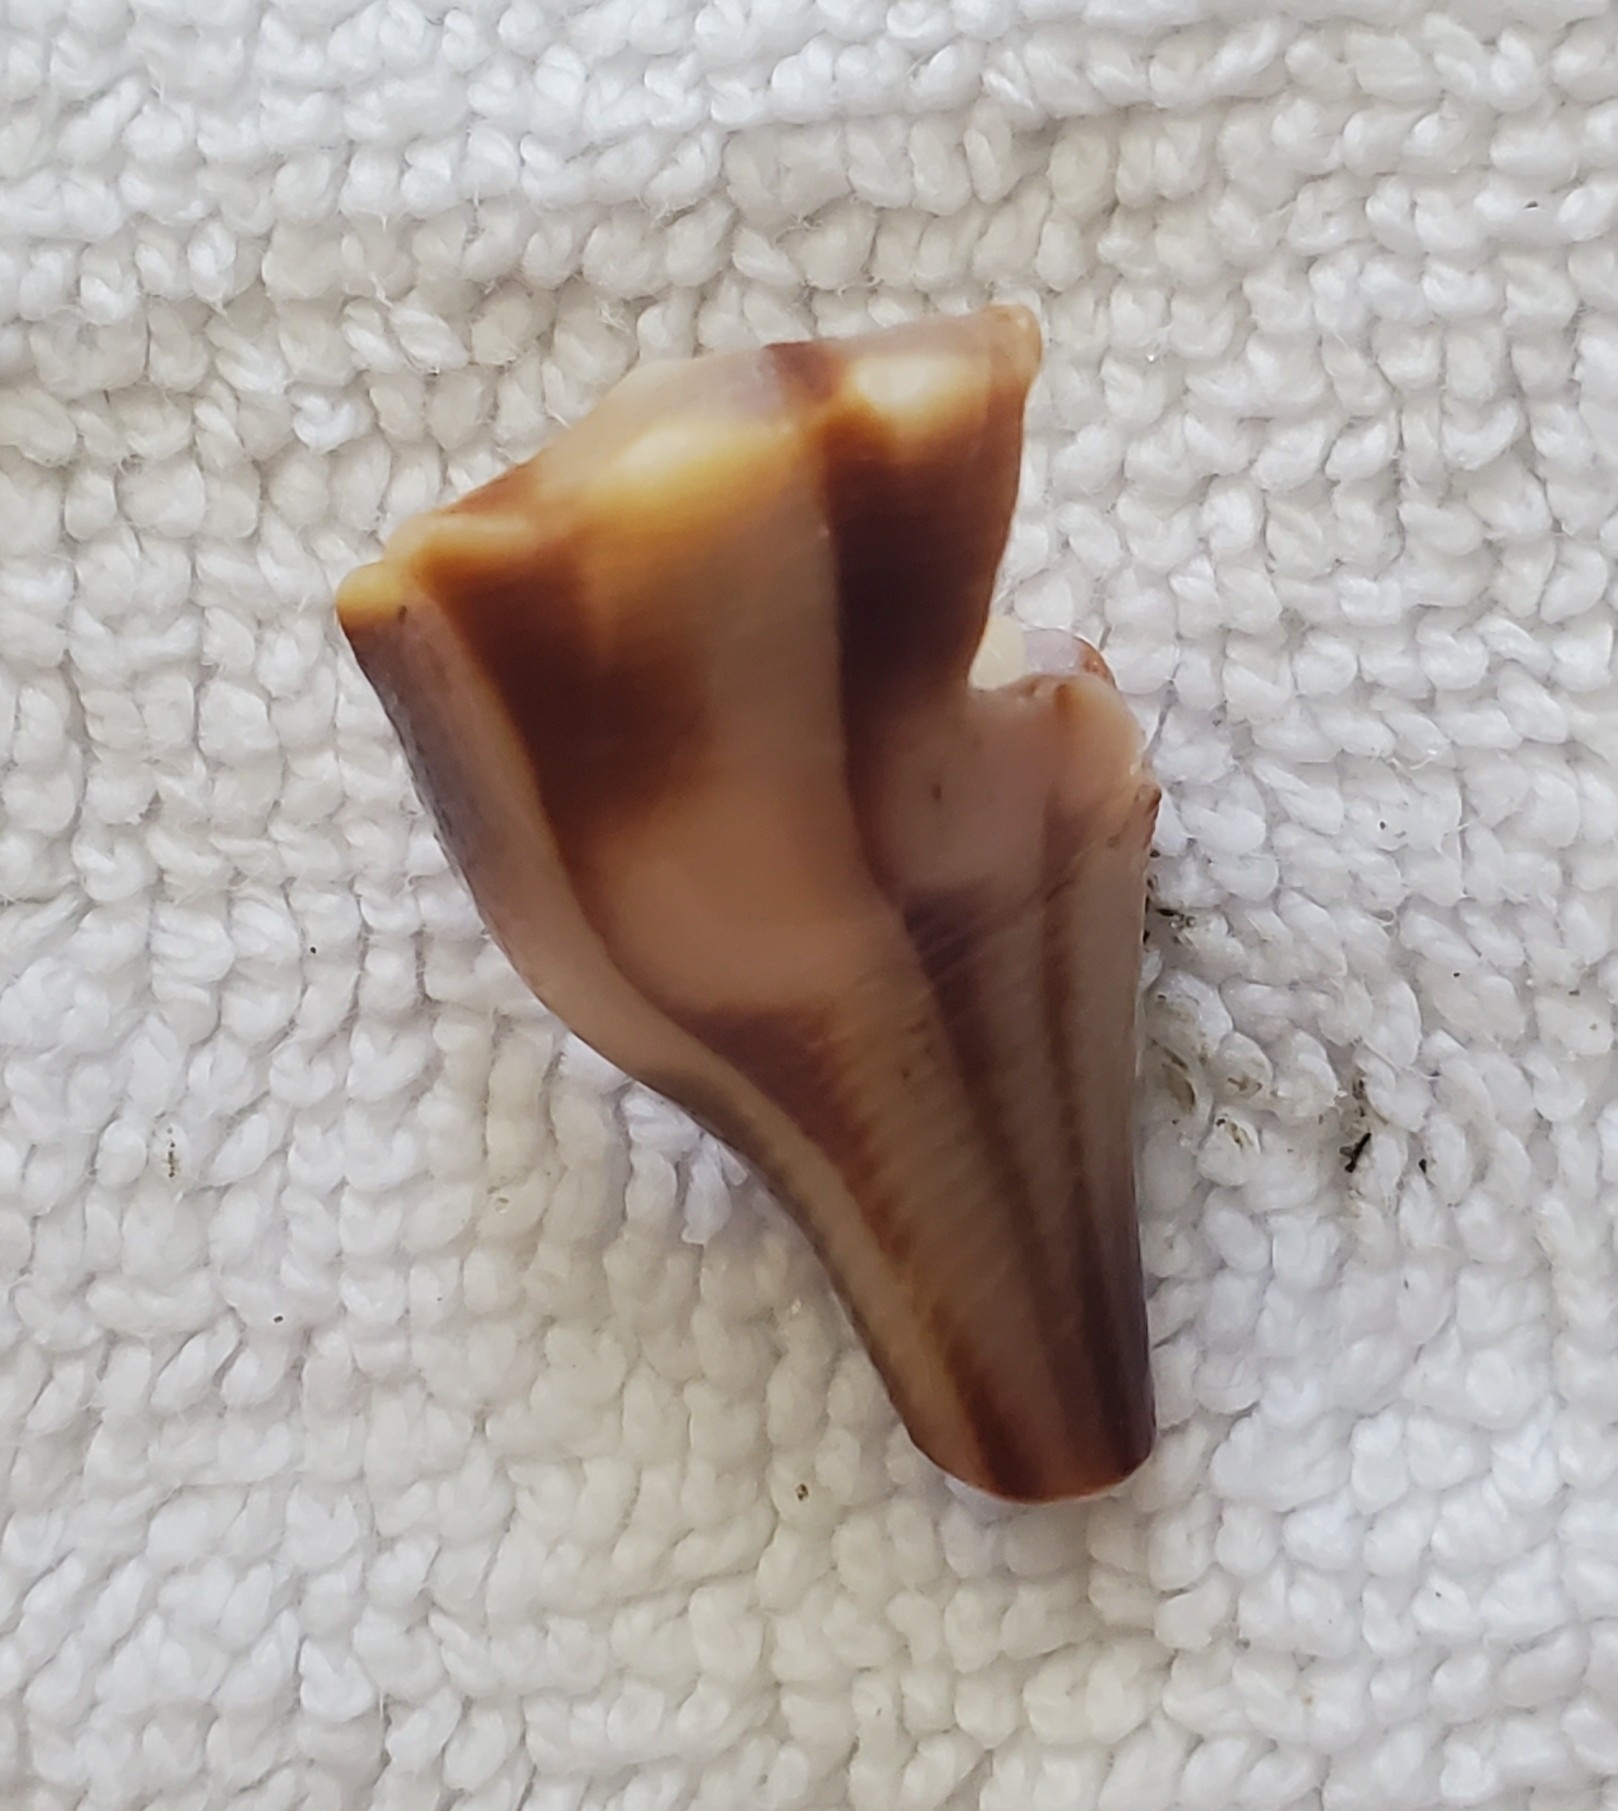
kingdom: Animalia
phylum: Mollusca
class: Gastropoda
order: Neogastropoda
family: Busyconidae
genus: Busycon
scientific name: Busycon carica
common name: Knobbed whelk
